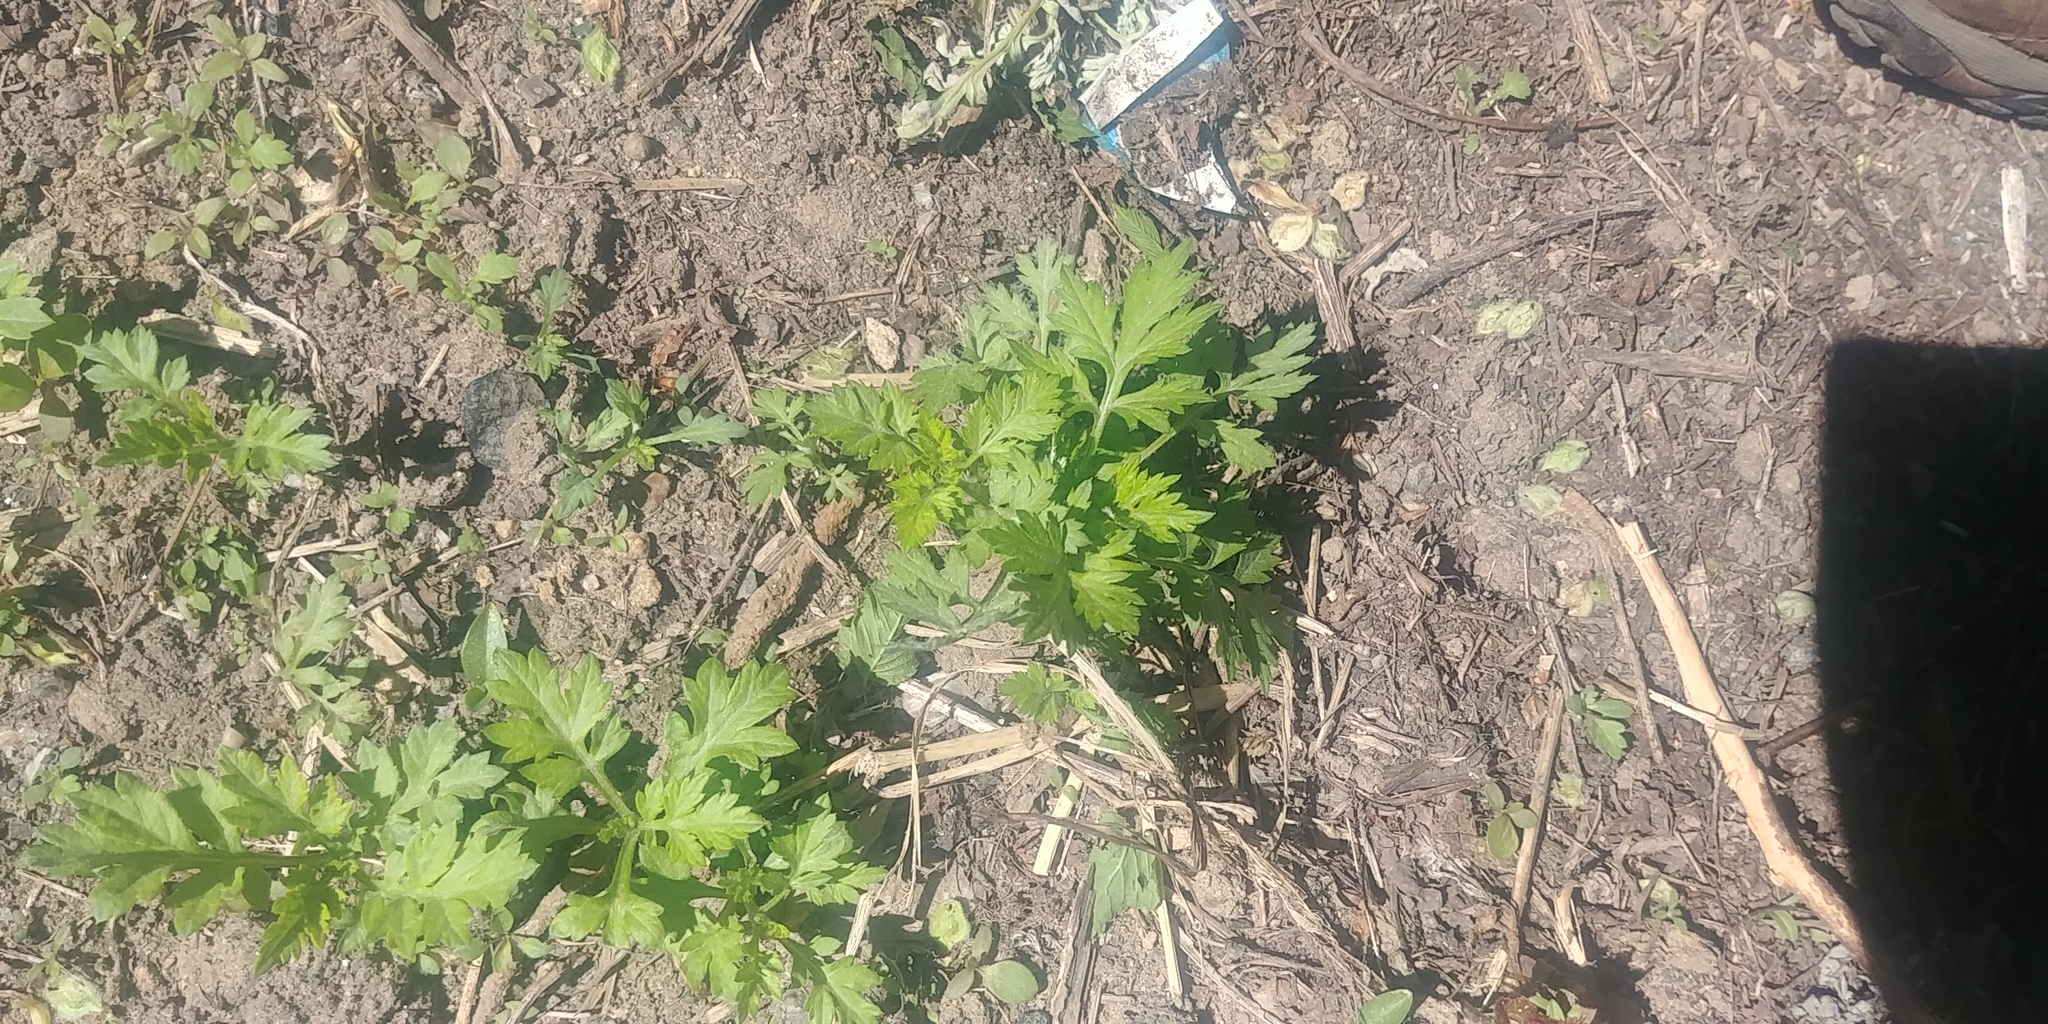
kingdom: Plantae
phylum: Tracheophyta
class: Magnoliopsida
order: Asterales
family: Asteraceae
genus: Artemisia
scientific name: Artemisia vulgaris
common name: Mugwort
